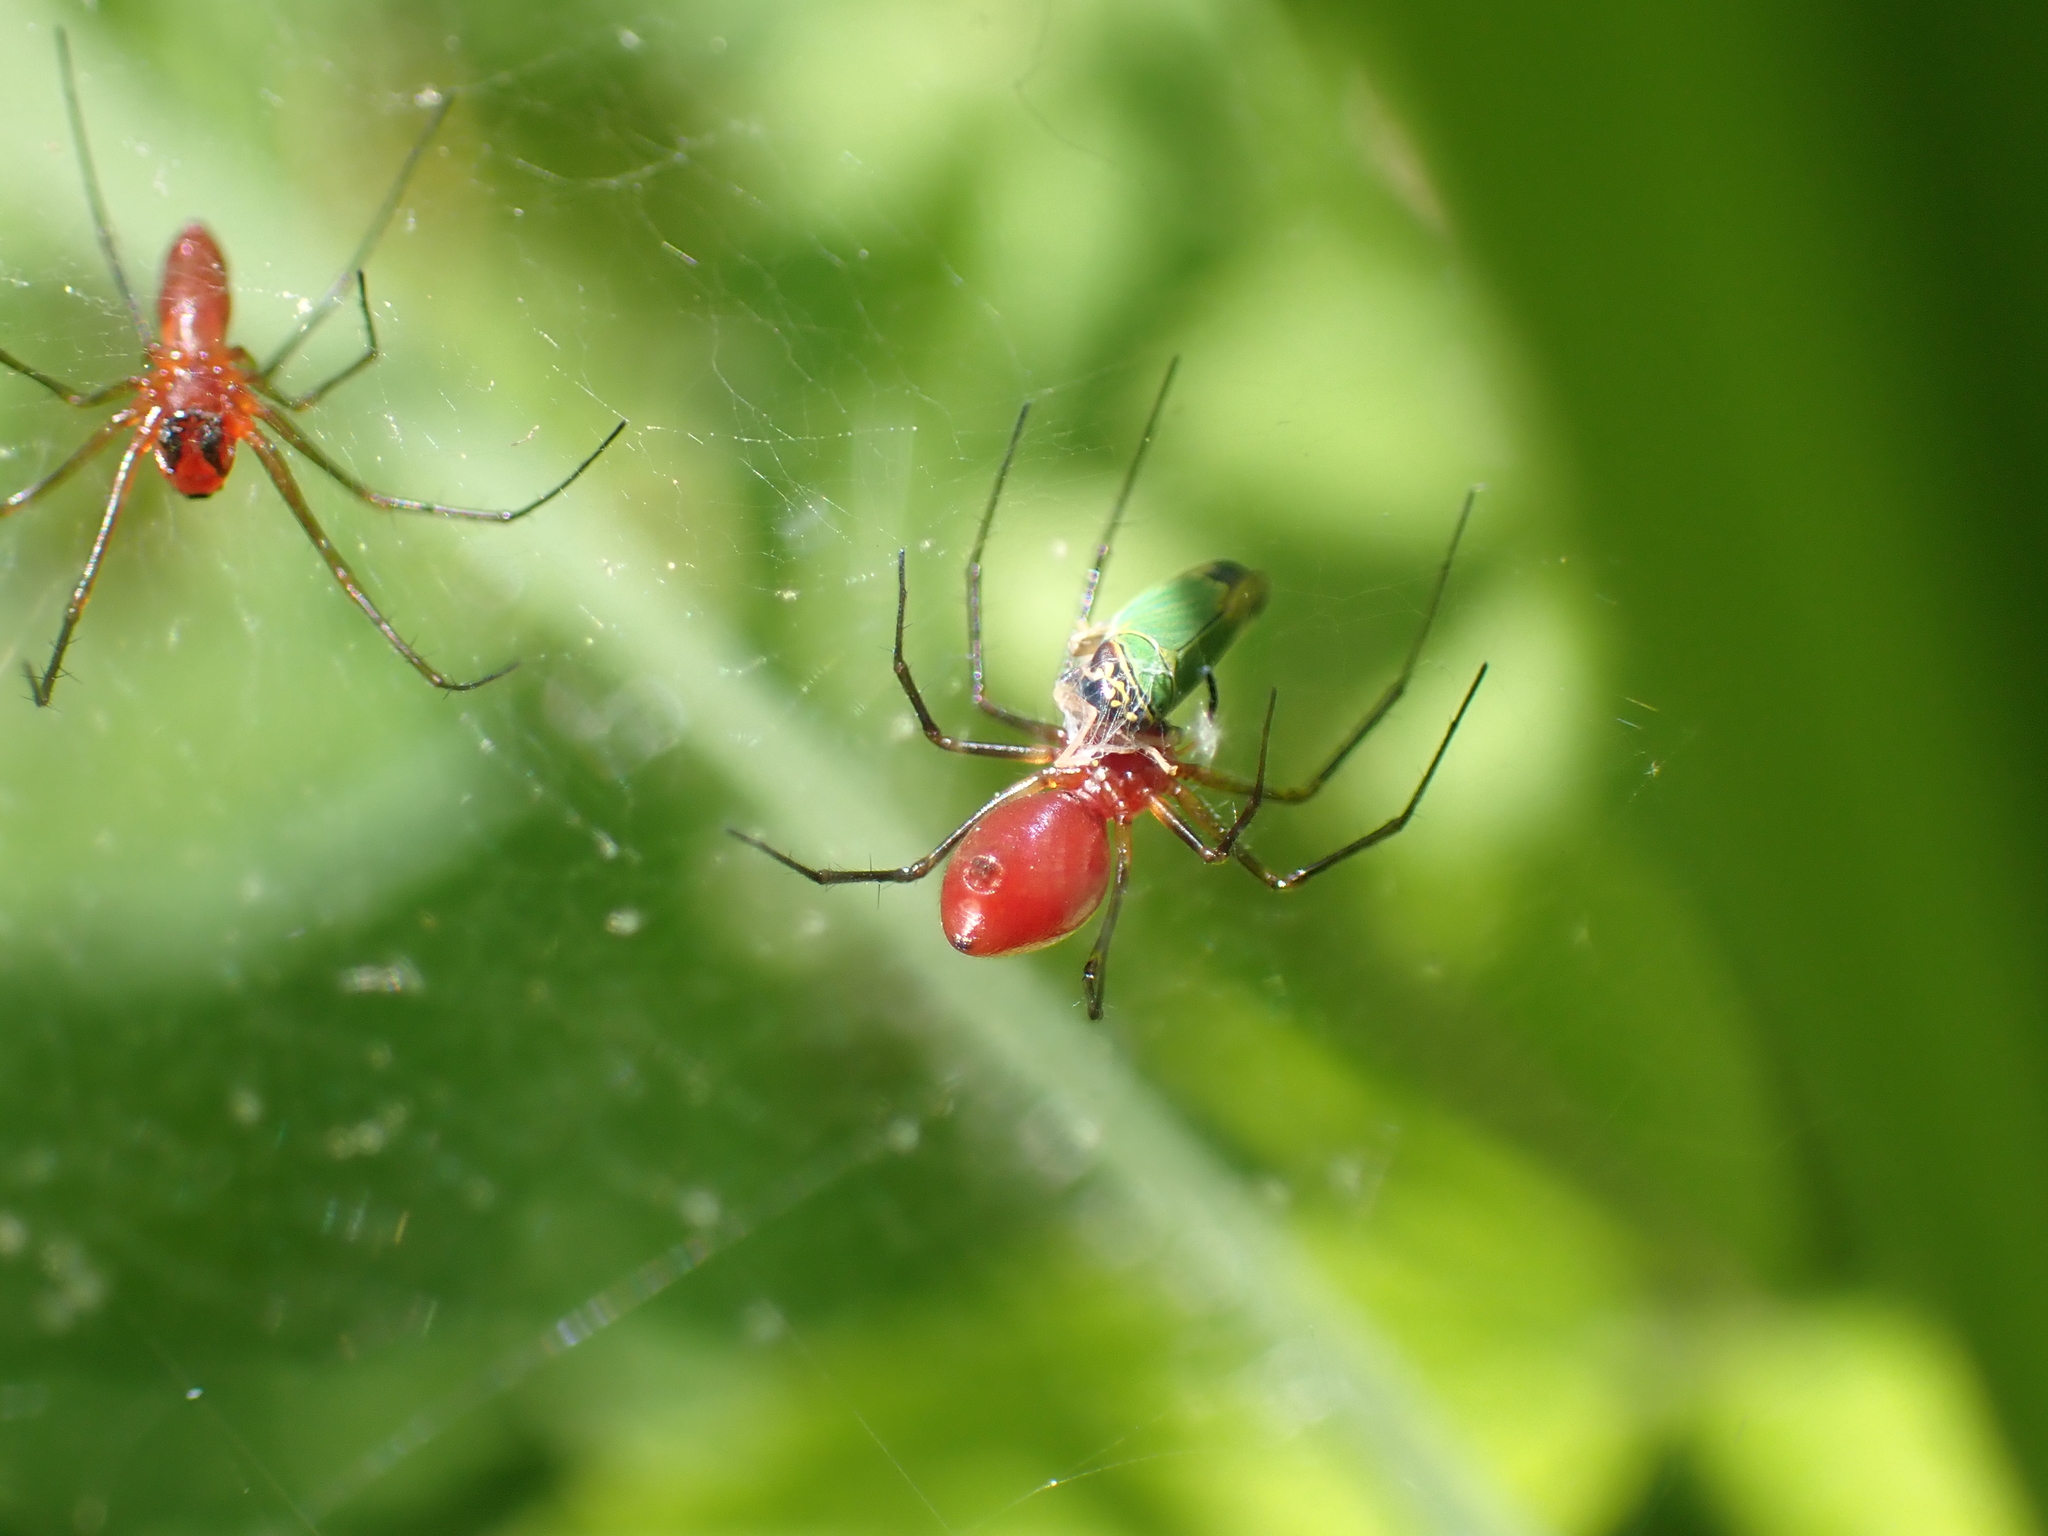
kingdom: Animalia
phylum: Arthropoda
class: Insecta
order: Hemiptera
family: Cicadellidae
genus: Tylozygus
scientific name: Tylozygus geometricus
